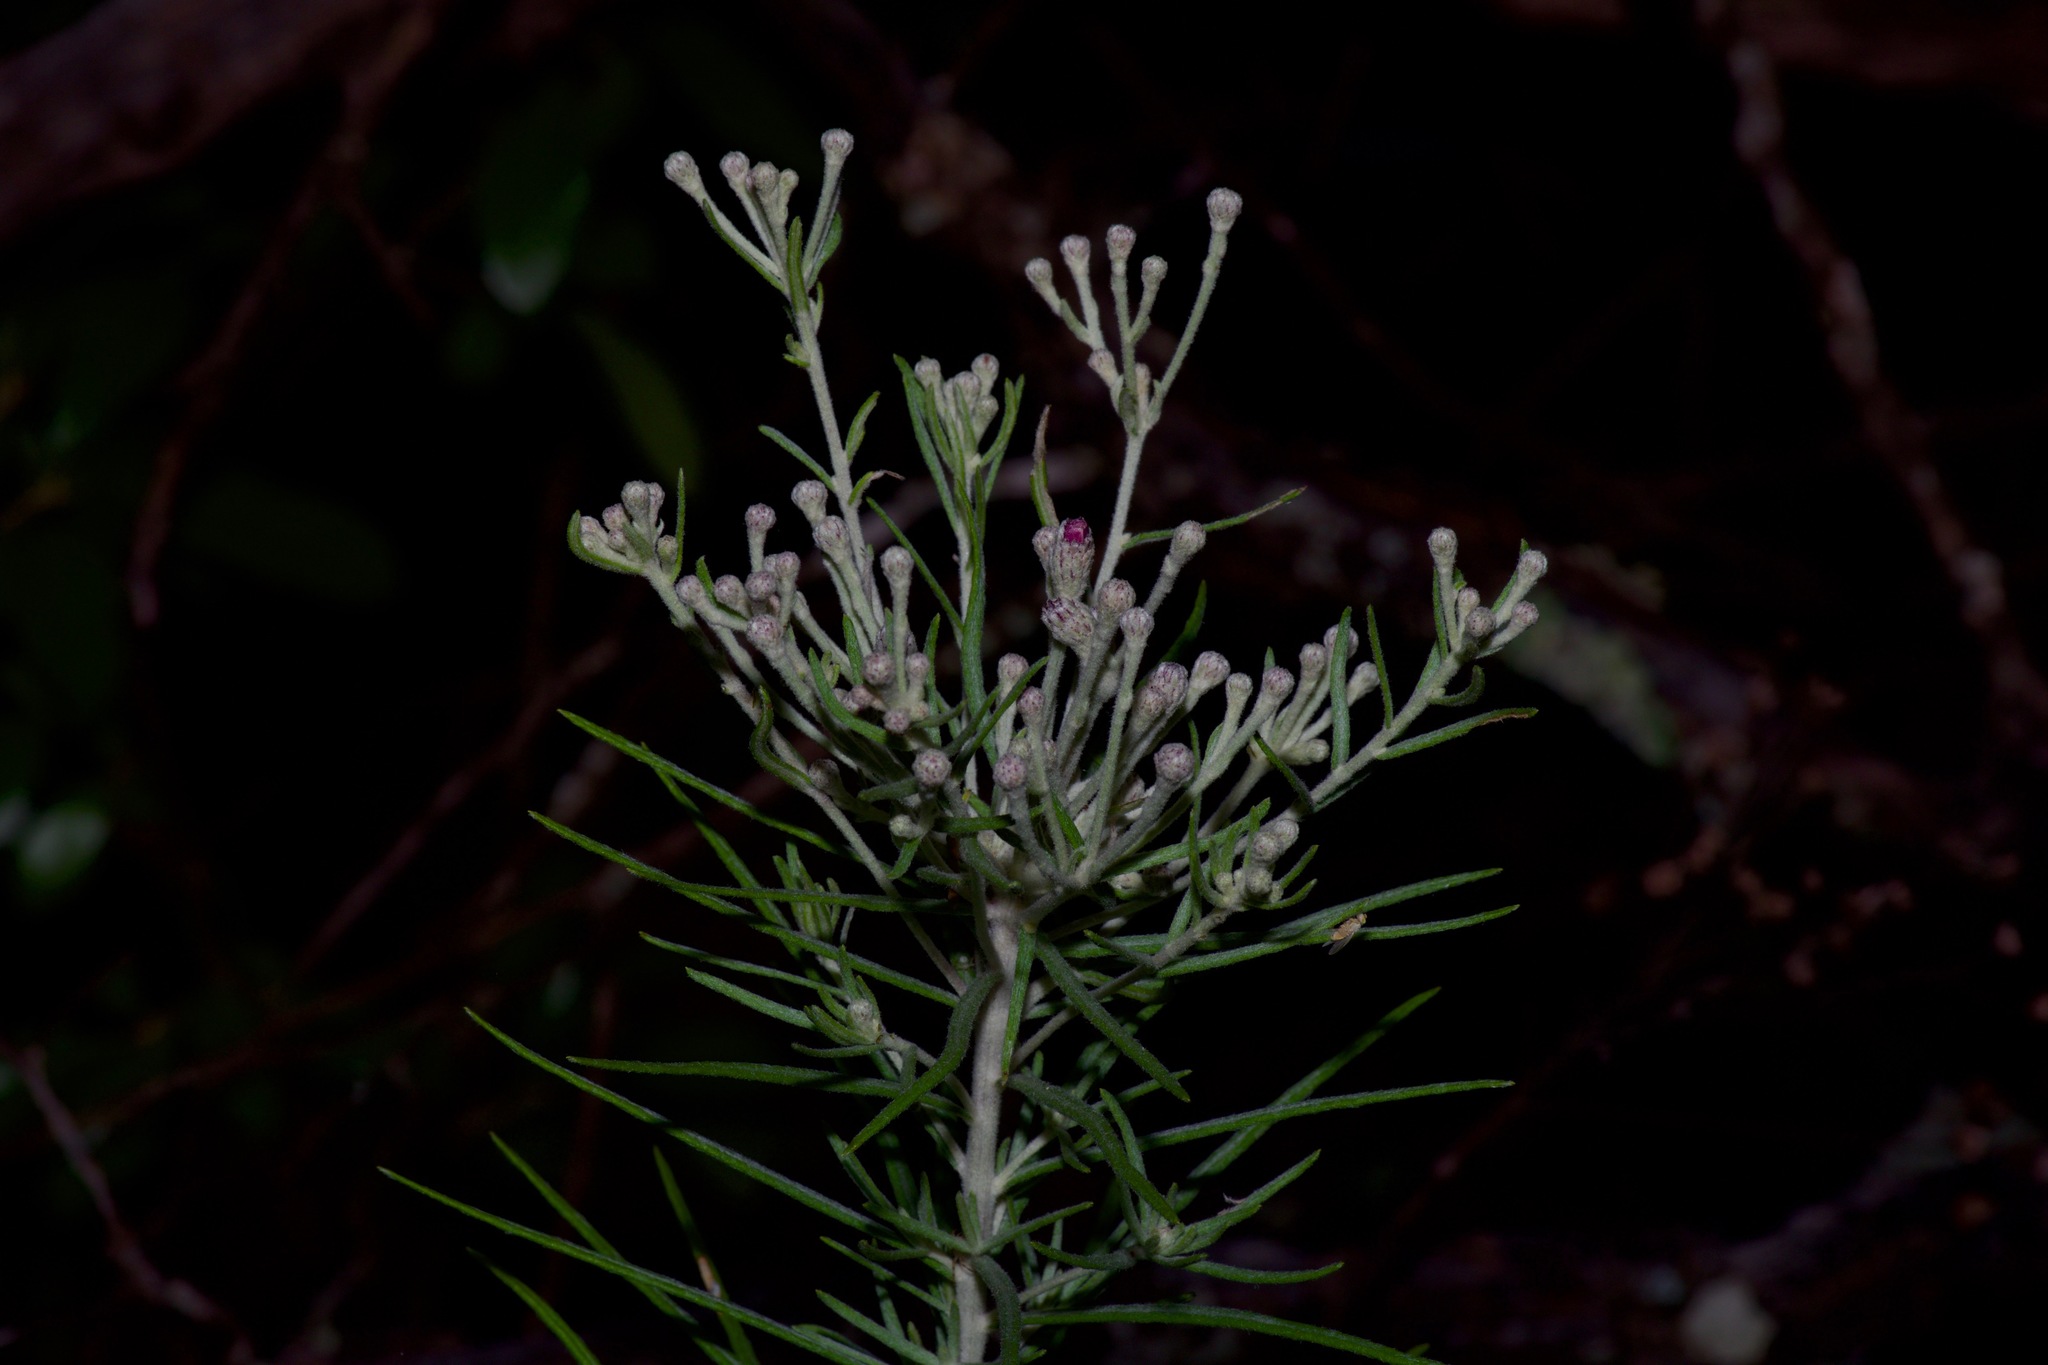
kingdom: Plantae
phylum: Tracheophyta
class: Magnoliopsida
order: Asterales
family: Asteraceae
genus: Vernonia
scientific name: Vernonia lindheimeri
